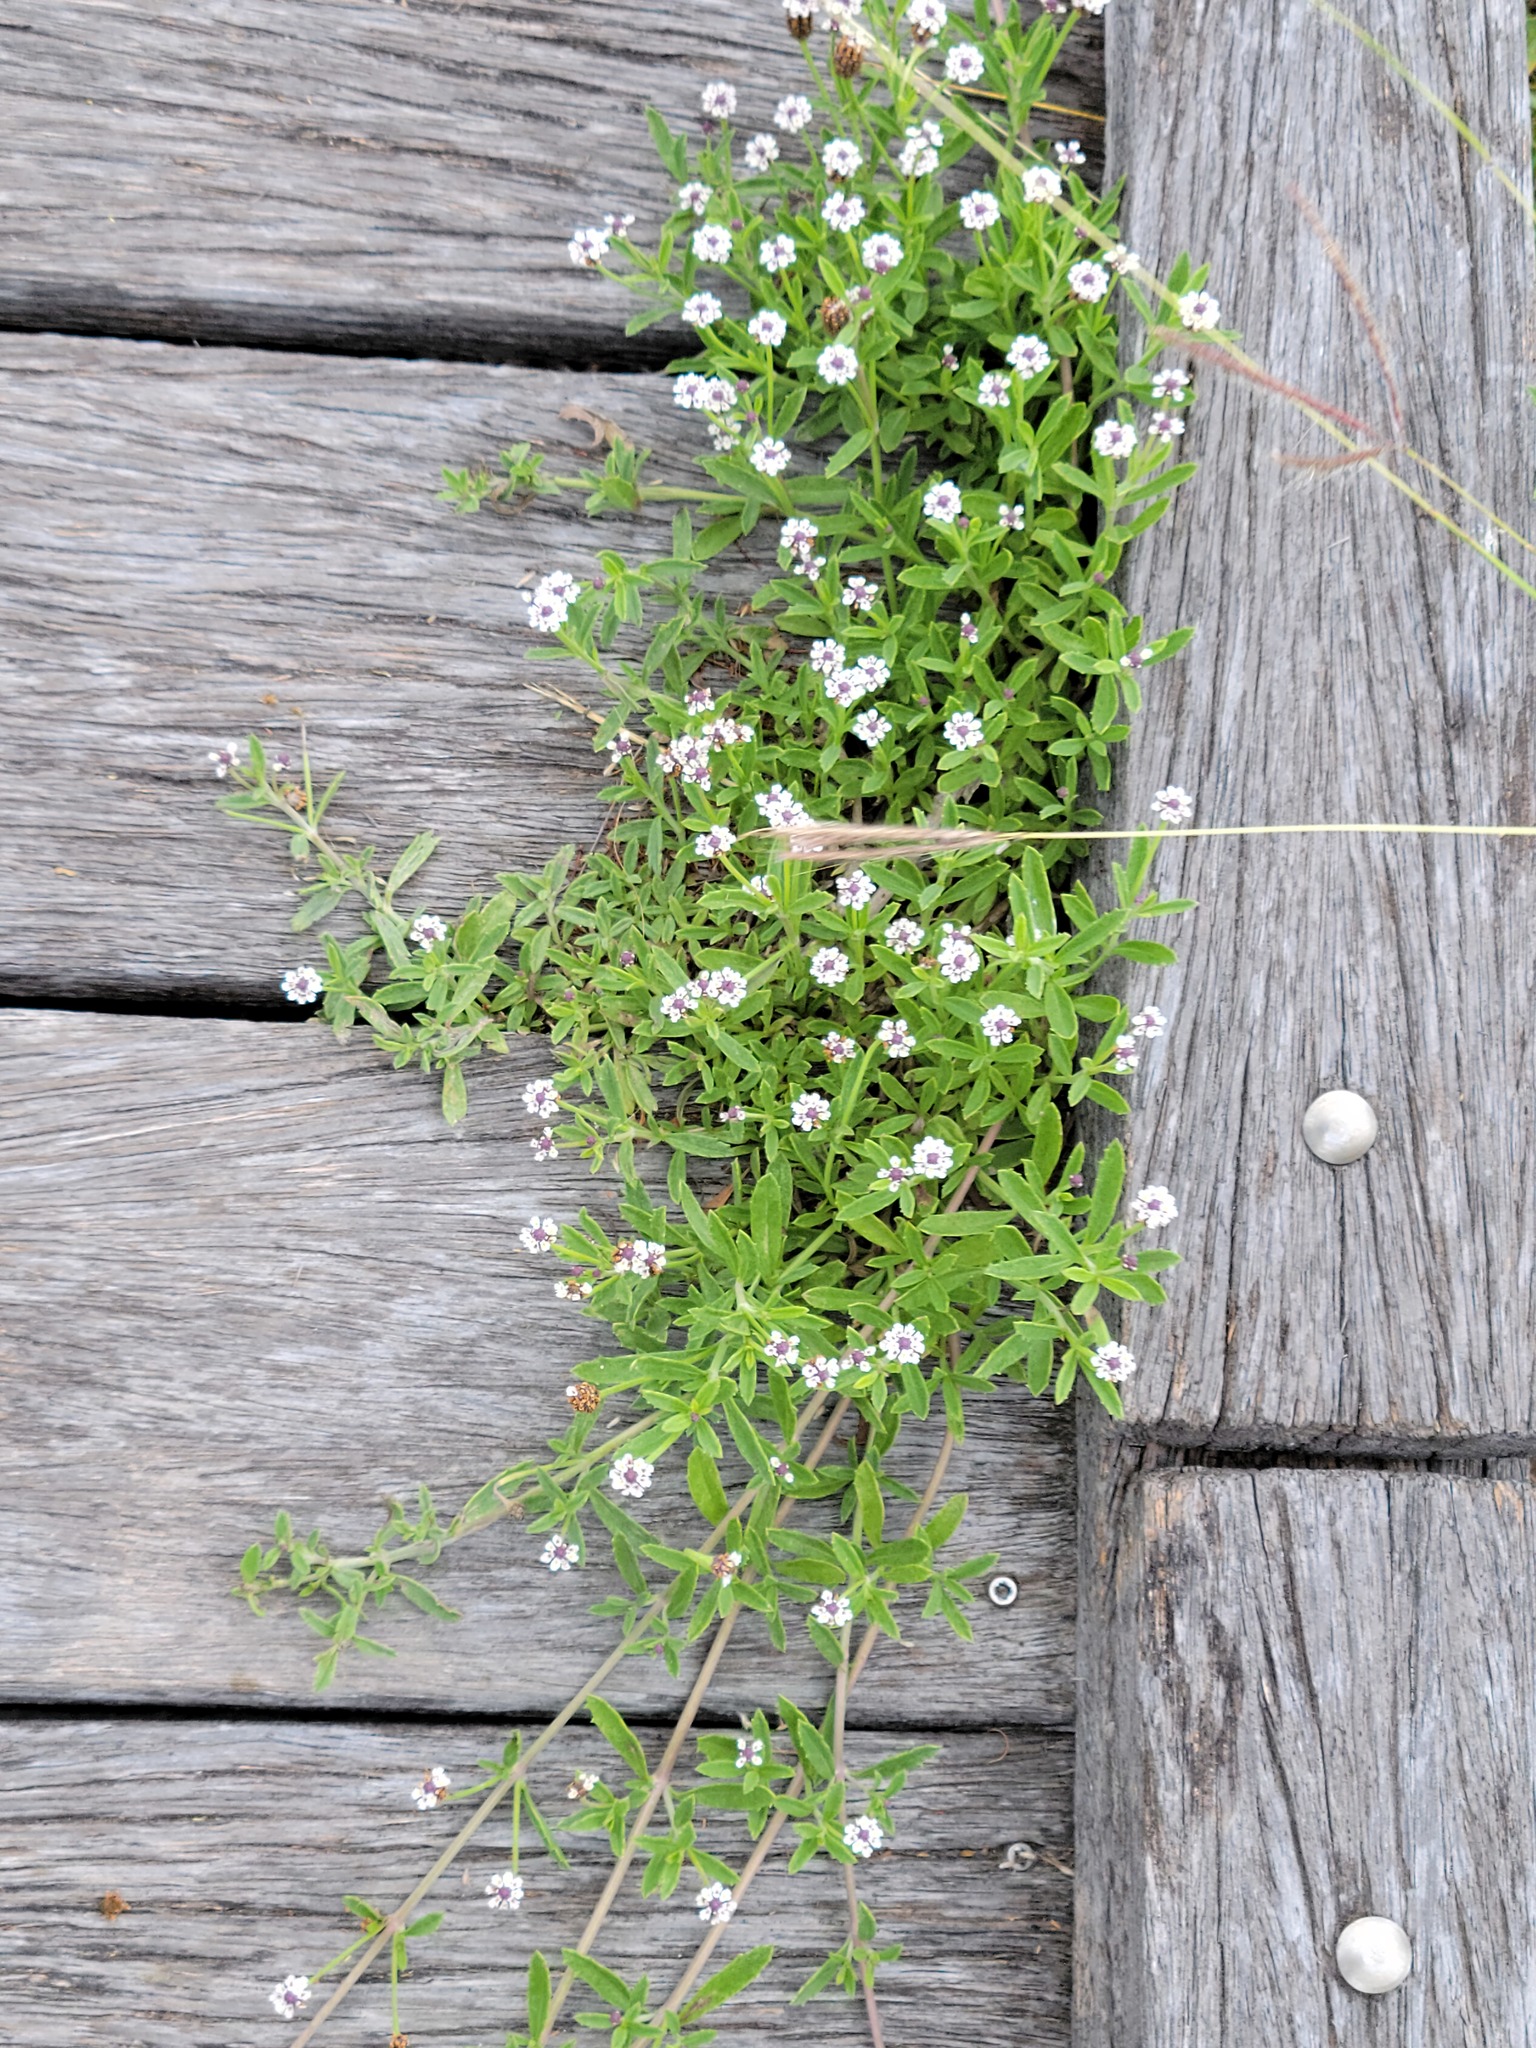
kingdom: Plantae
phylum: Tracheophyta
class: Magnoliopsida
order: Lamiales
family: Verbenaceae
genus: Phyla
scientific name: Phyla nodiflora
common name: Frogfruit
